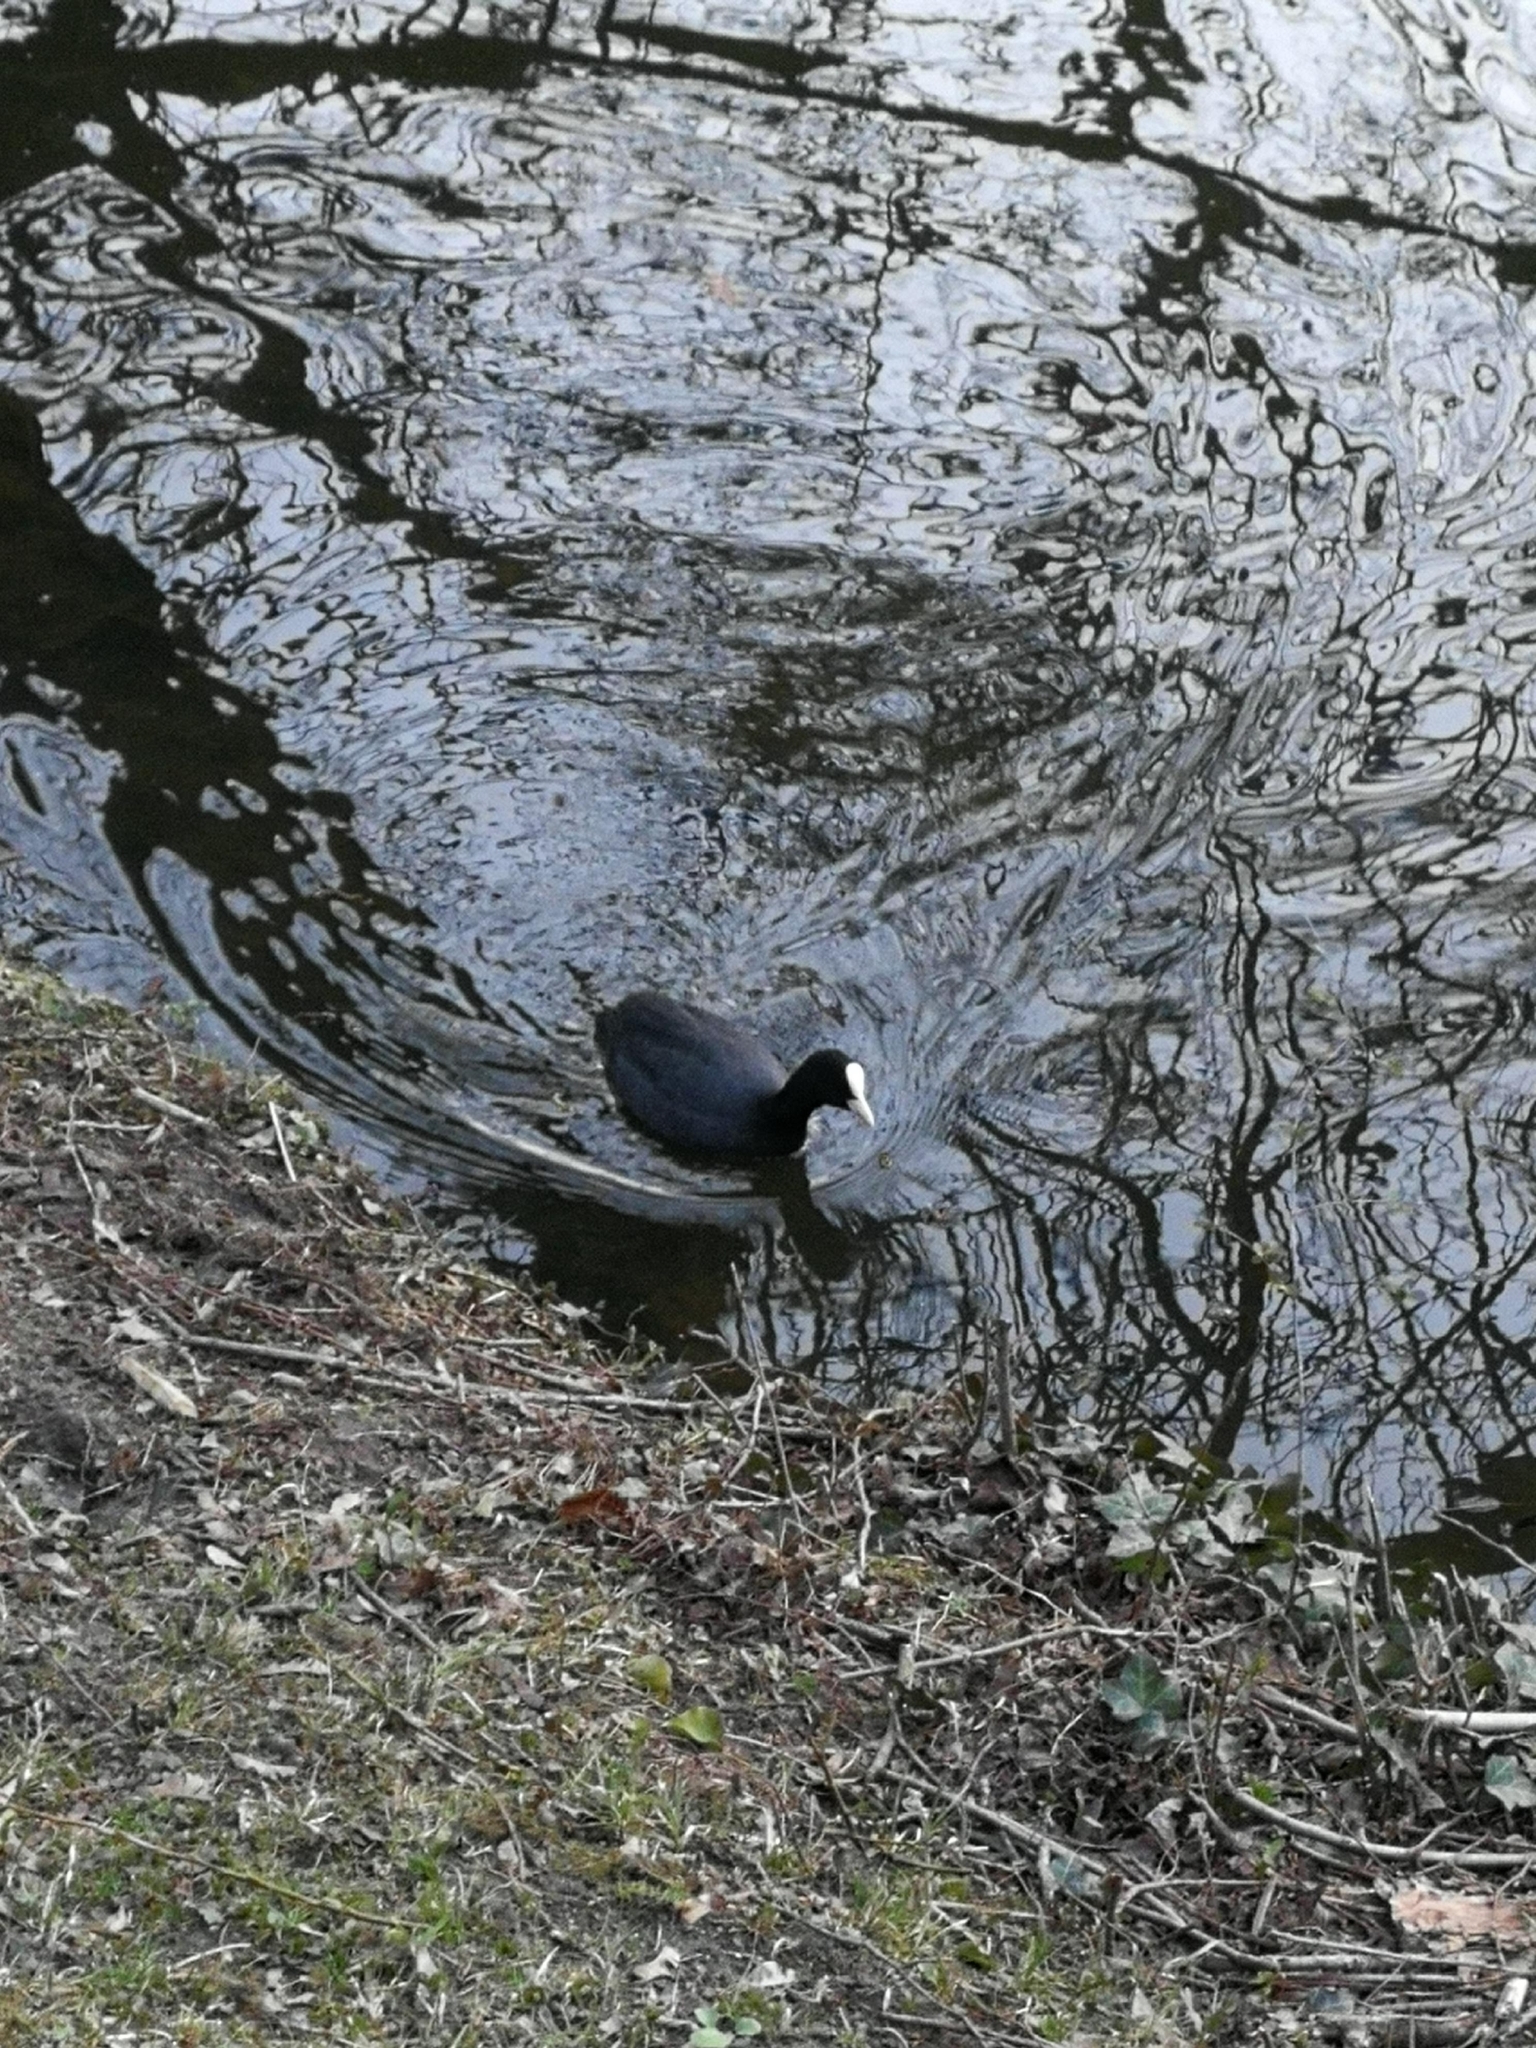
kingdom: Animalia
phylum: Chordata
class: Aves
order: Gruiformes
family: Rallidae
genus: Fulica
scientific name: Fulica atra
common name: Eurasian coot
